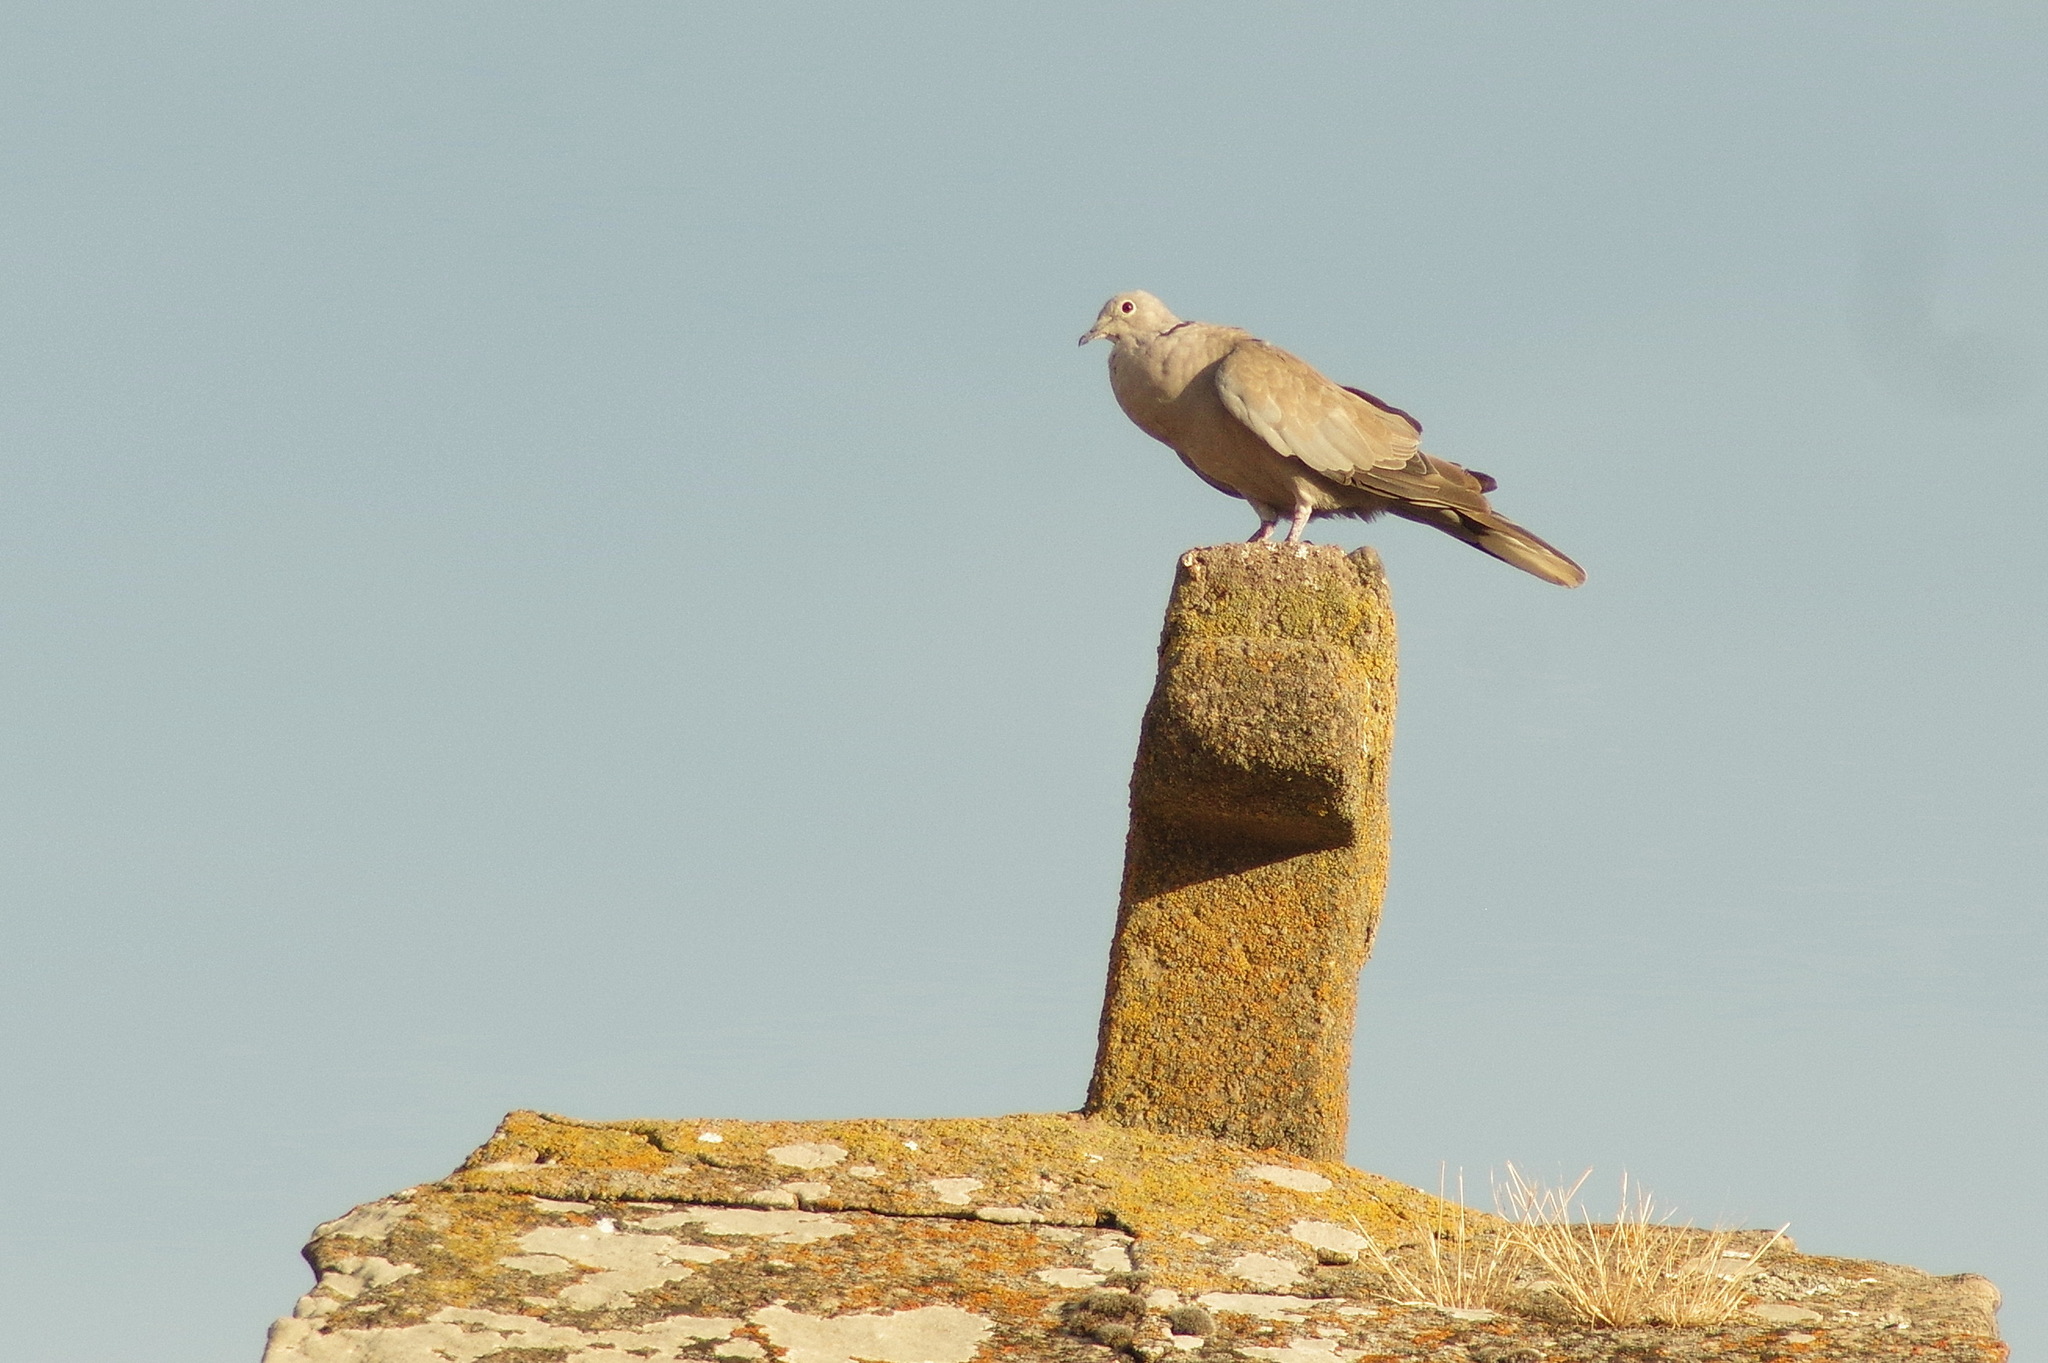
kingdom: Animalia
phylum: Chordata
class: Aves
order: Columbiformes
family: Columbidae
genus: Streptopelia
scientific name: Streptopelia decaocto
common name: Eurasian collared dove
